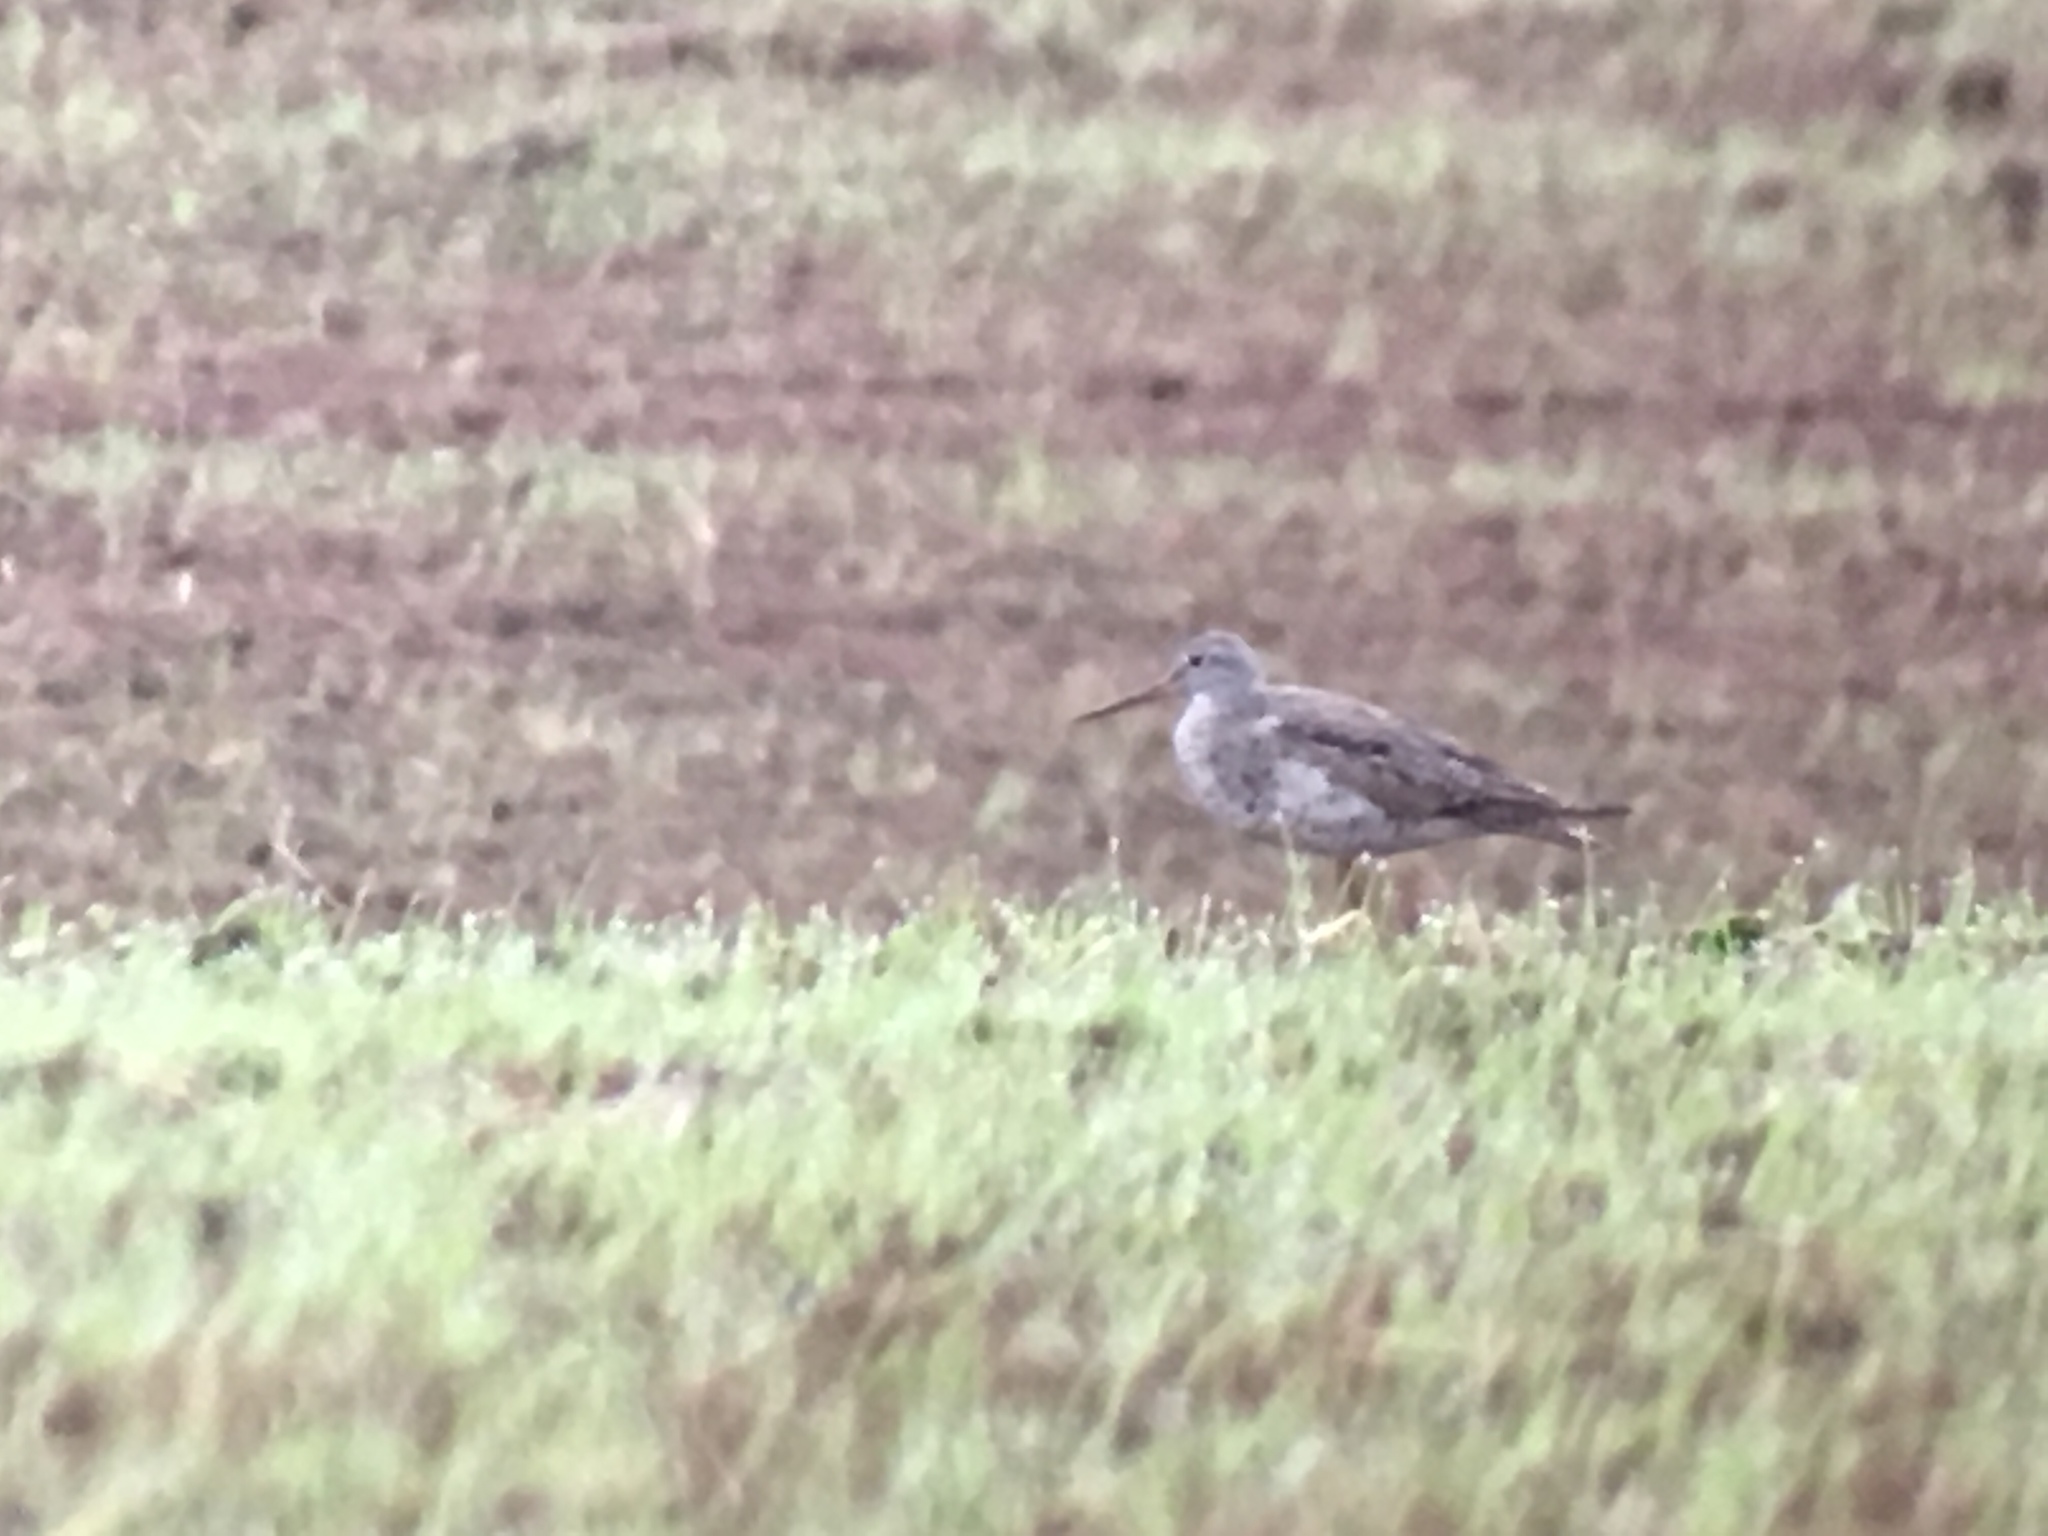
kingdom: Animalia
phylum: Chordata
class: Aves
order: Charadriiformes
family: Scolopacidae
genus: Tringa
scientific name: Tringa melanoleuca
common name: Greater yellowlegs
